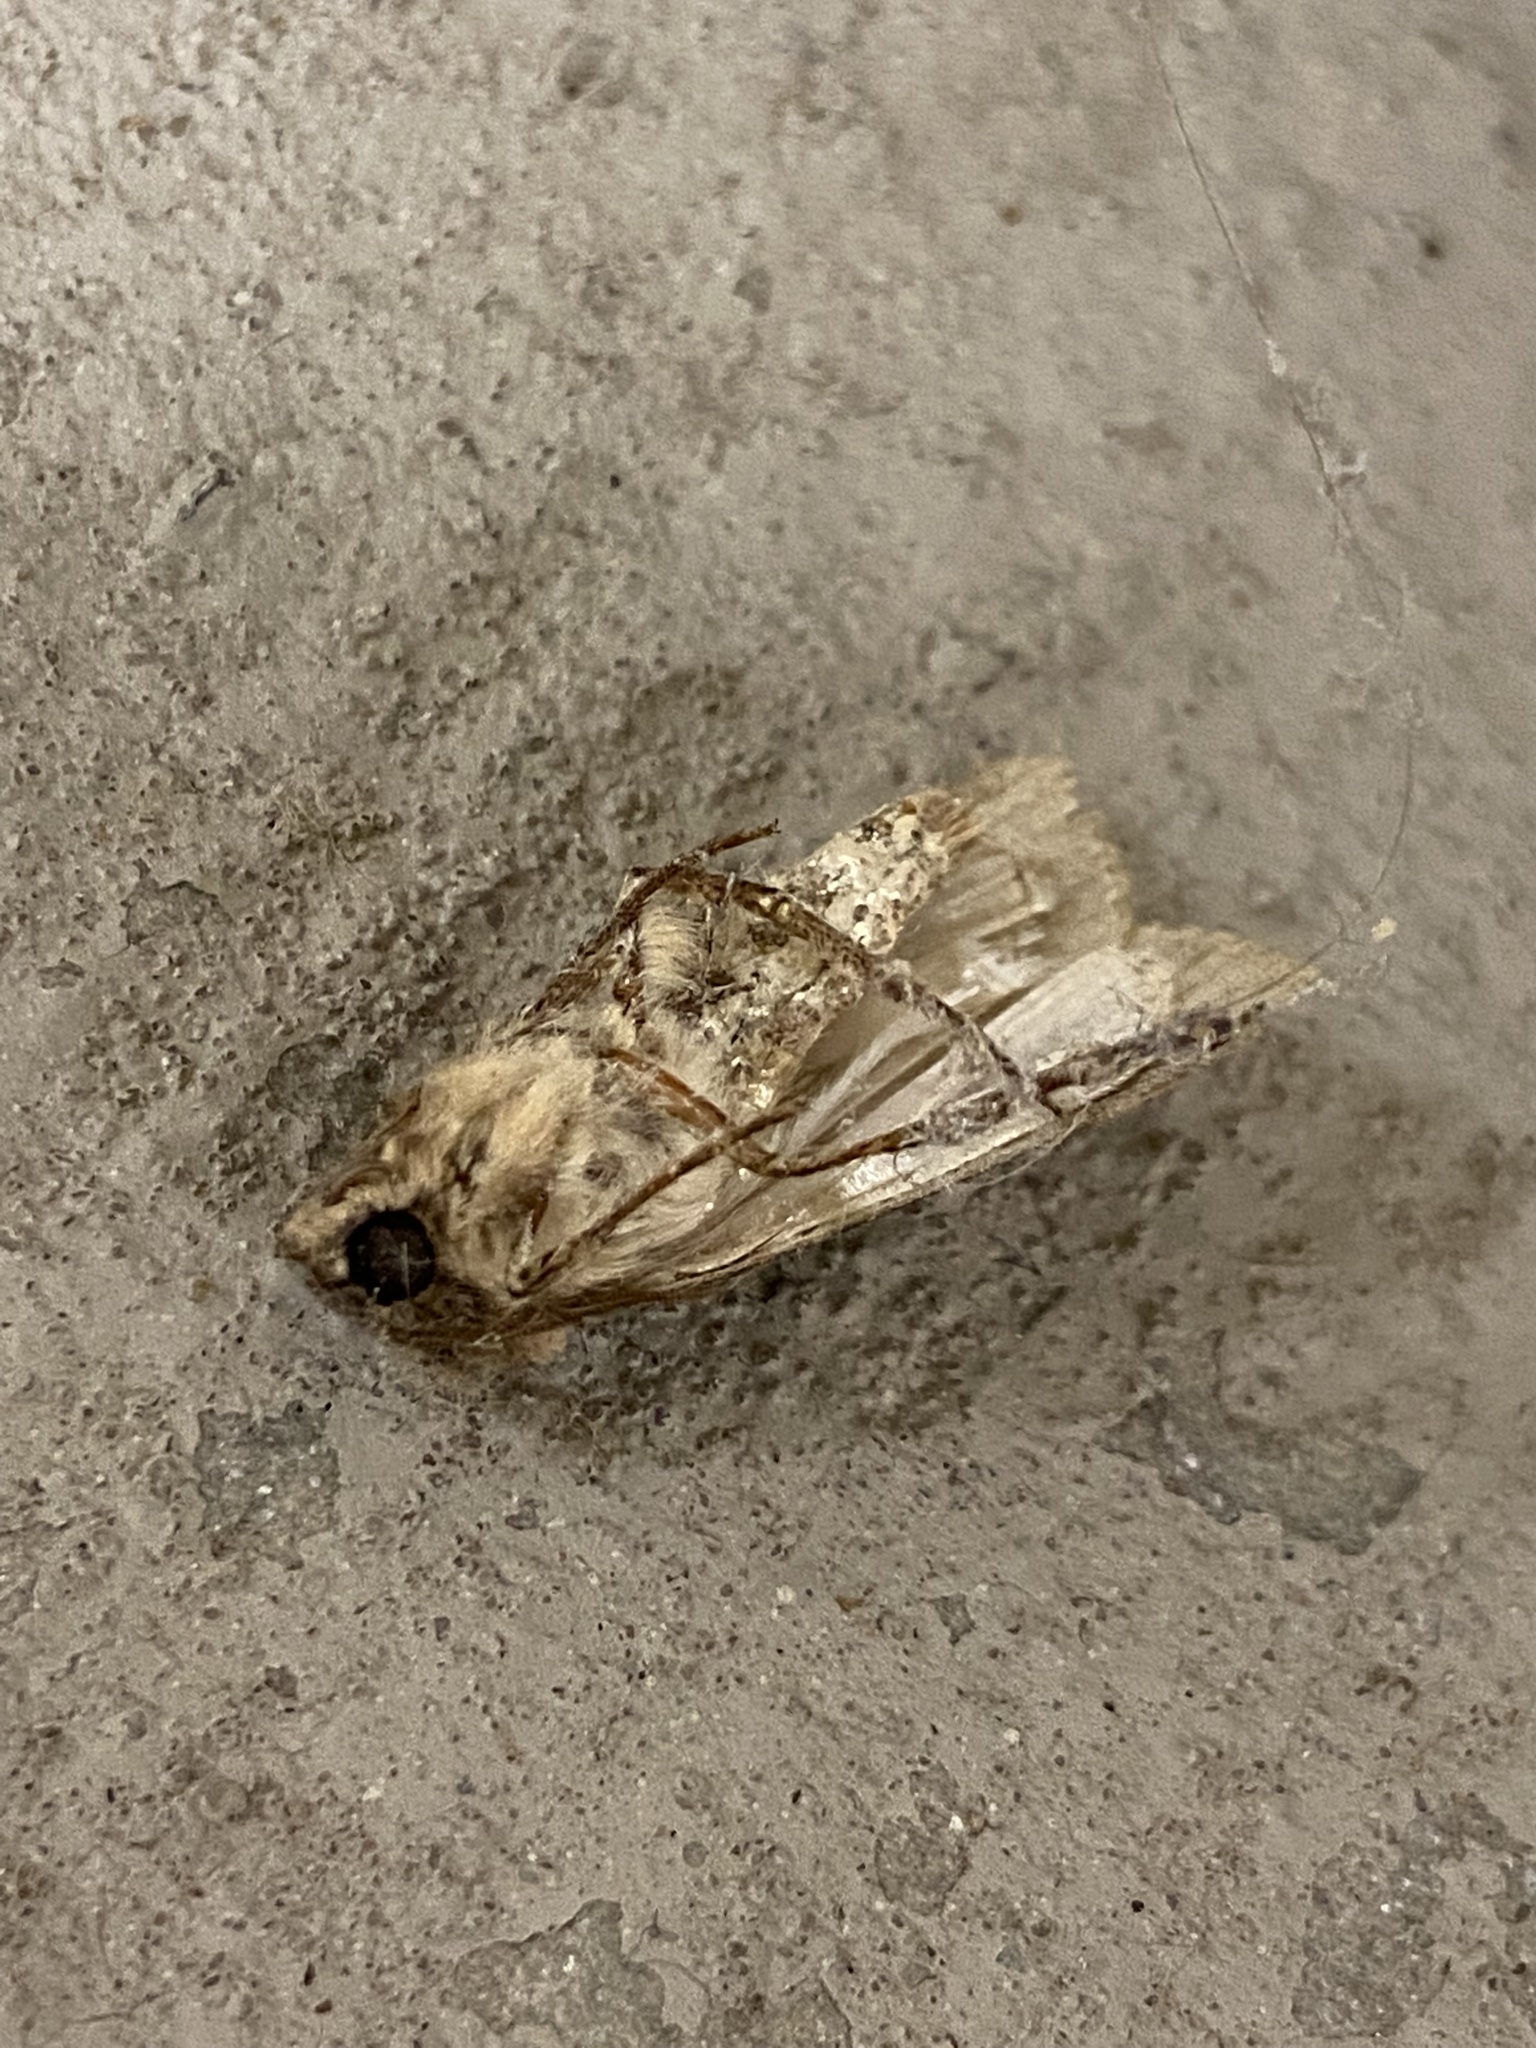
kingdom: Animalia
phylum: Arthropoda
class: Insecta
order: Lepidoptera
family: Noctuidae
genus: Feltia
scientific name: Feltia subterranea
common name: Granulate cutworm
